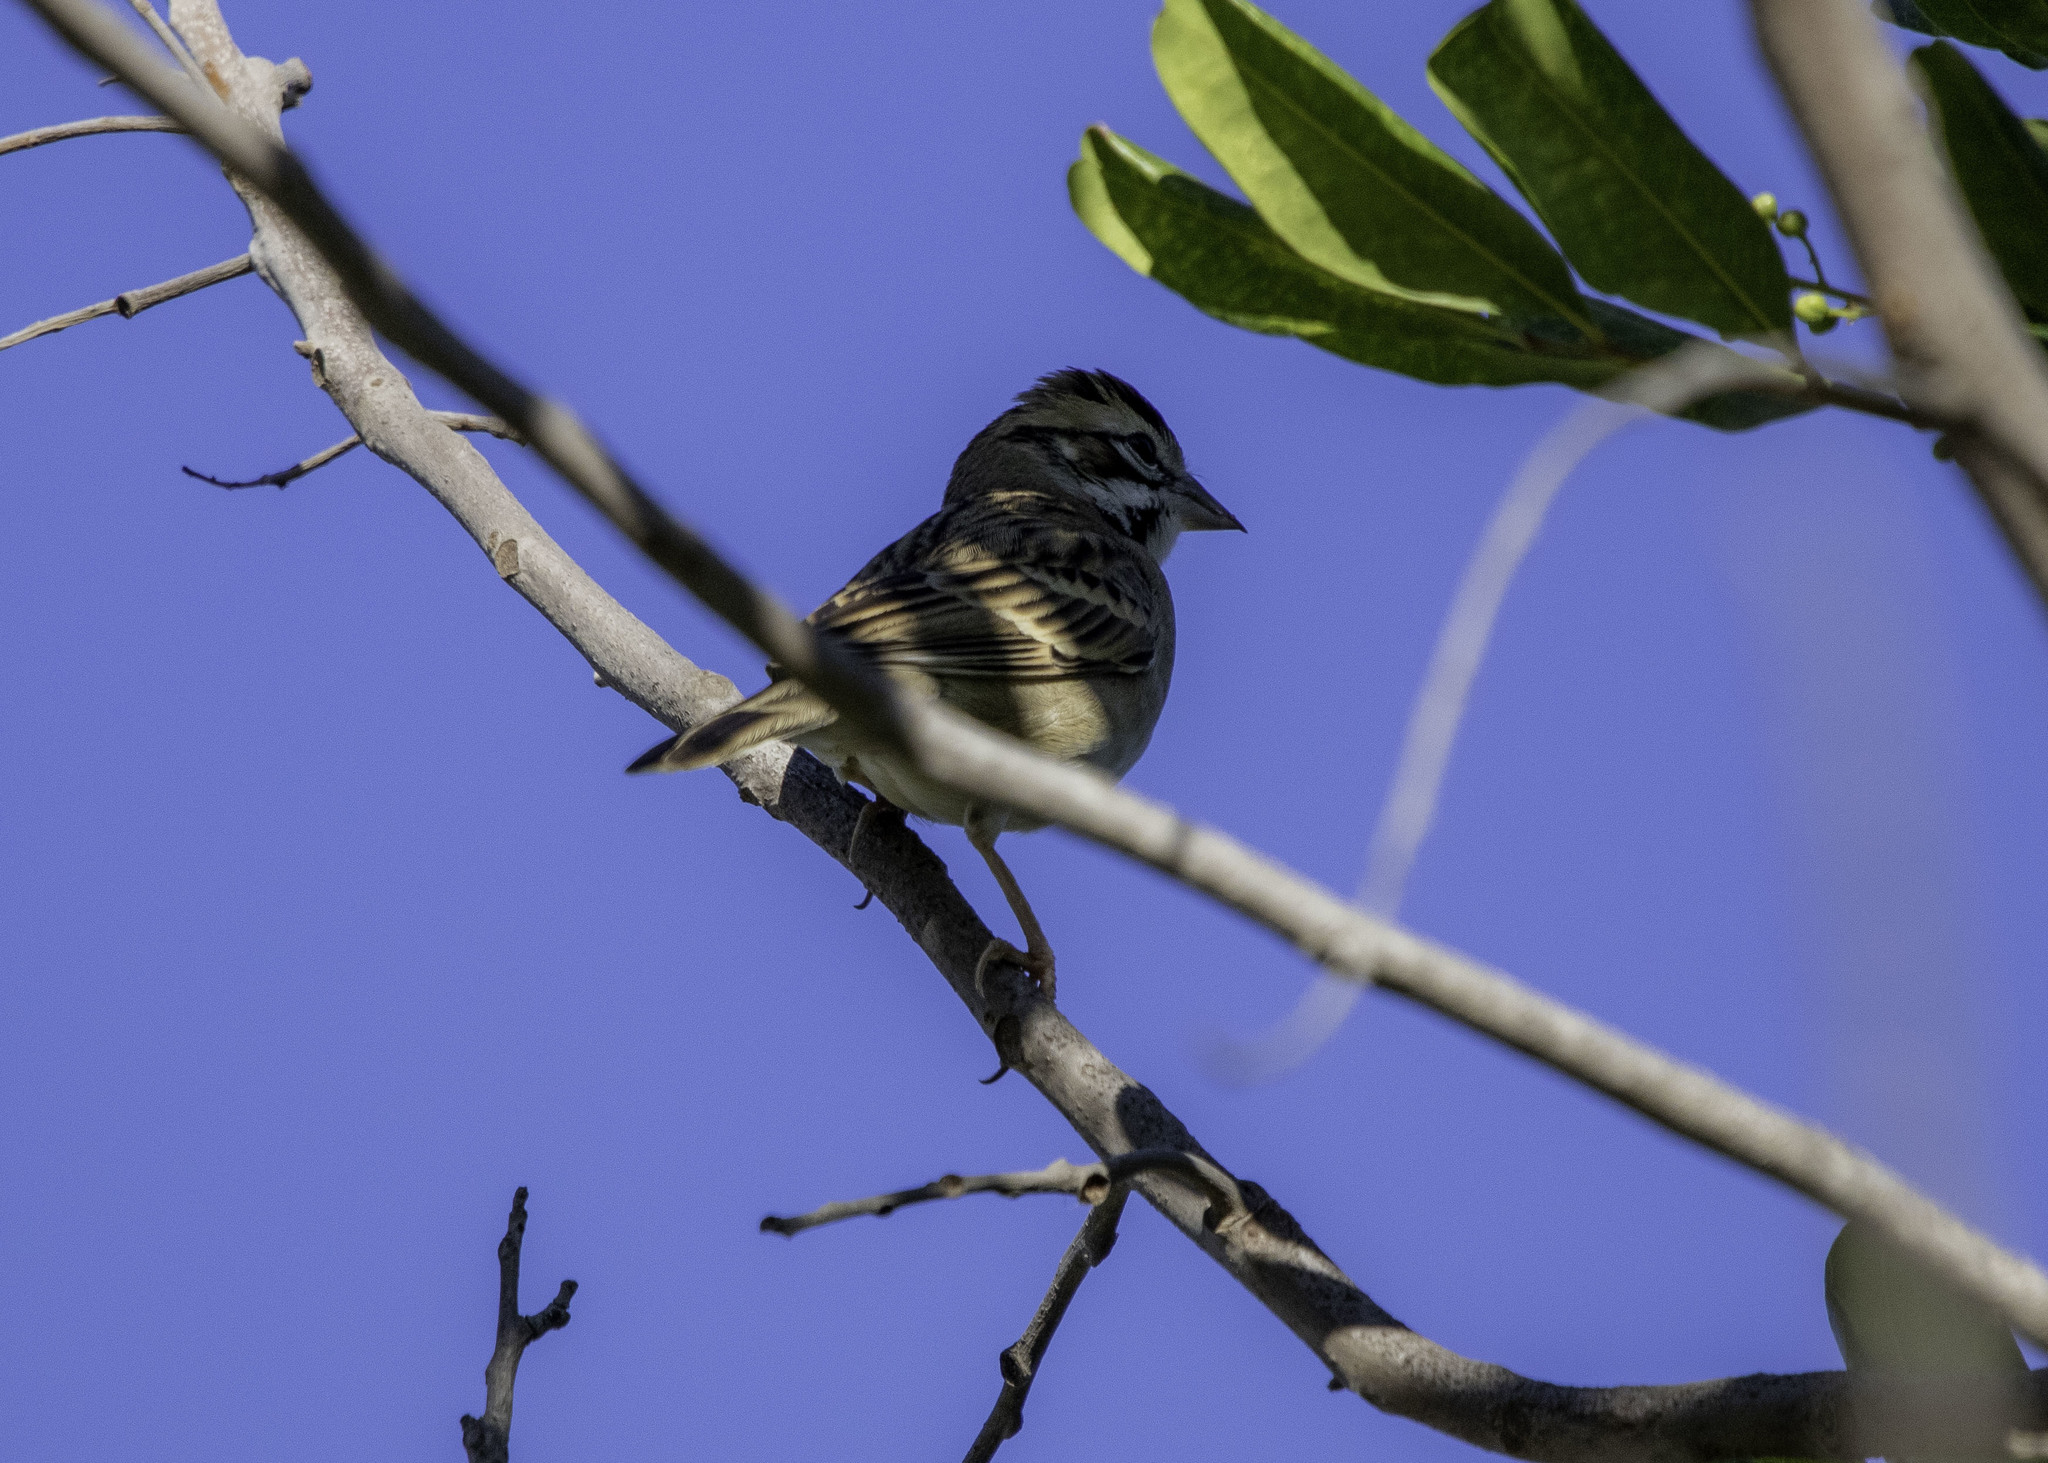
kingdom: Animalia
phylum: Chordata
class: Aves
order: Passeriformes
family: Passerellidae
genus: Chondestes
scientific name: Chondestes grammacus
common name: Lark sparrow
